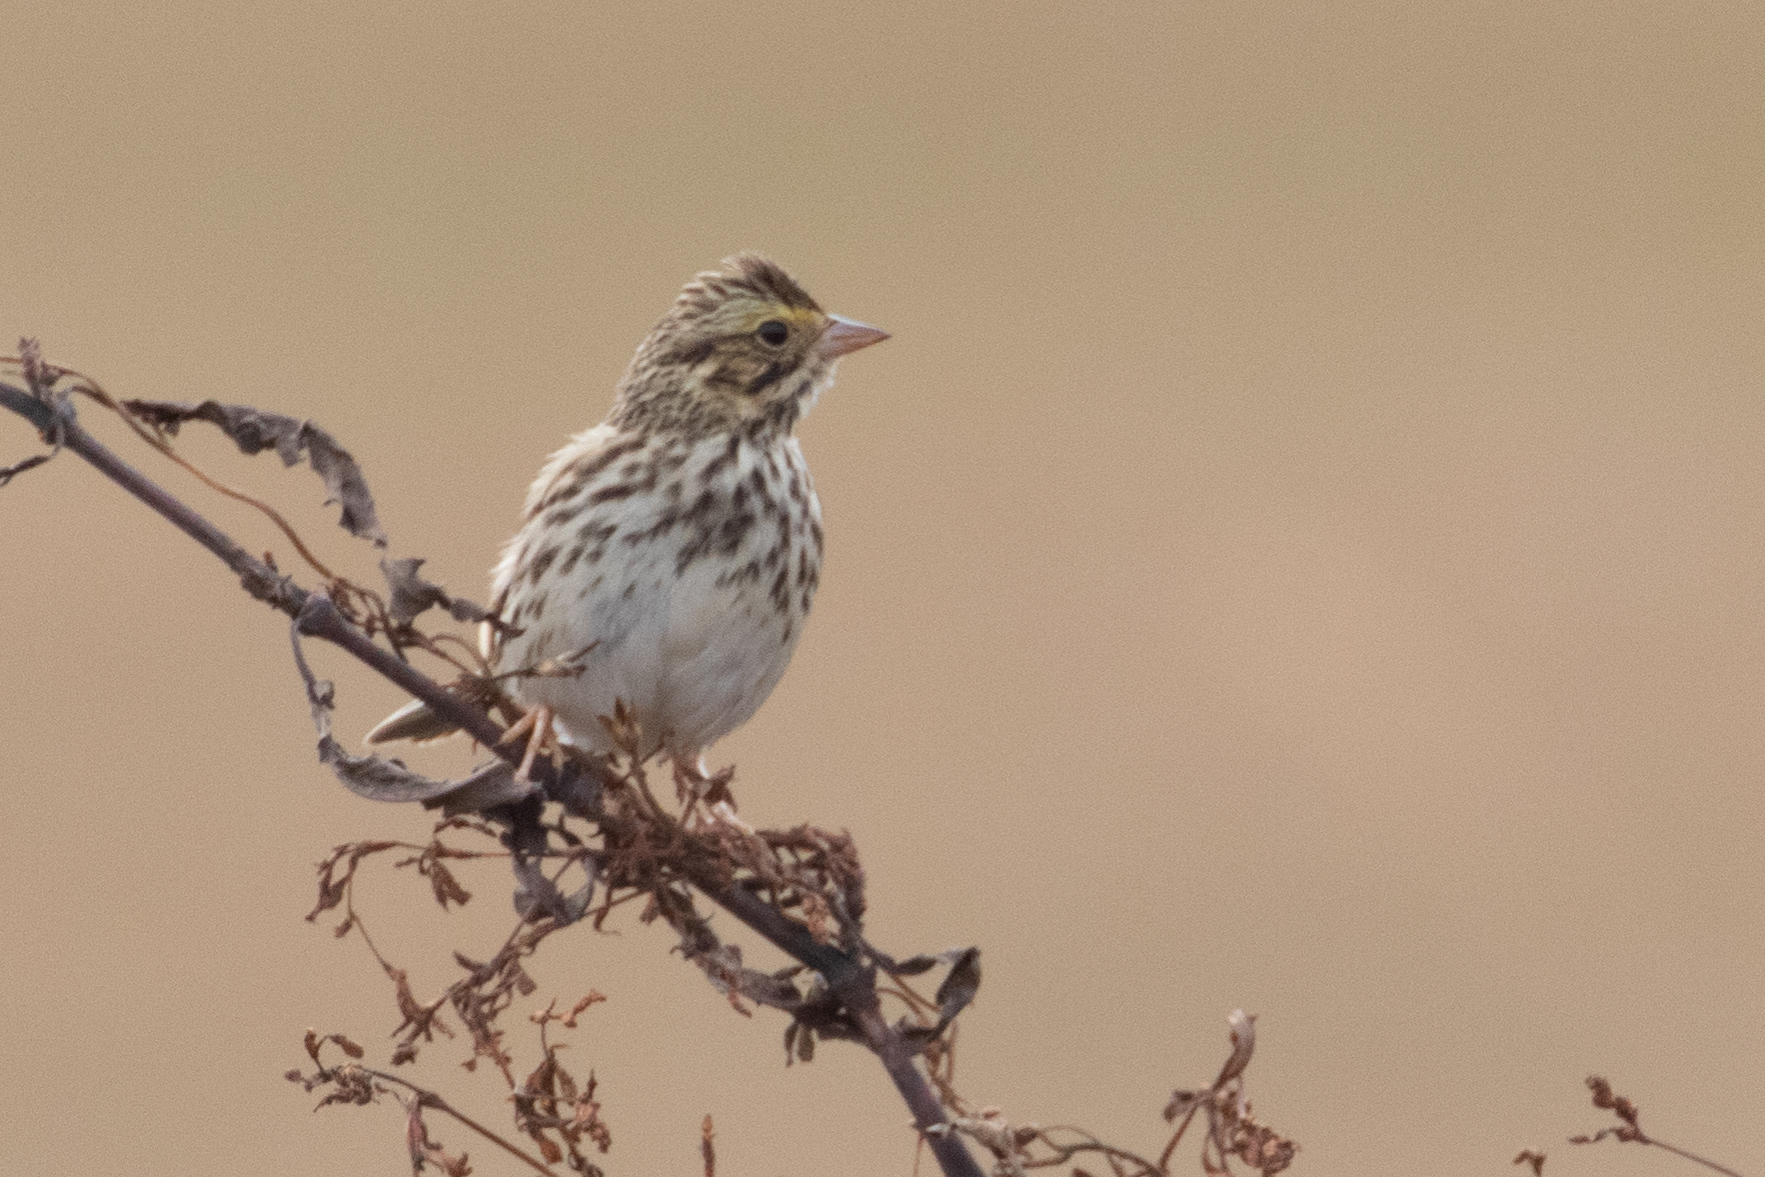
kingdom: Animalia
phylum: Chordata
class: Aves
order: Passeriformes
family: Passerellidae
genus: Passerculus
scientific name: Passerculus sandwichensis
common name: Savannah sparrow
